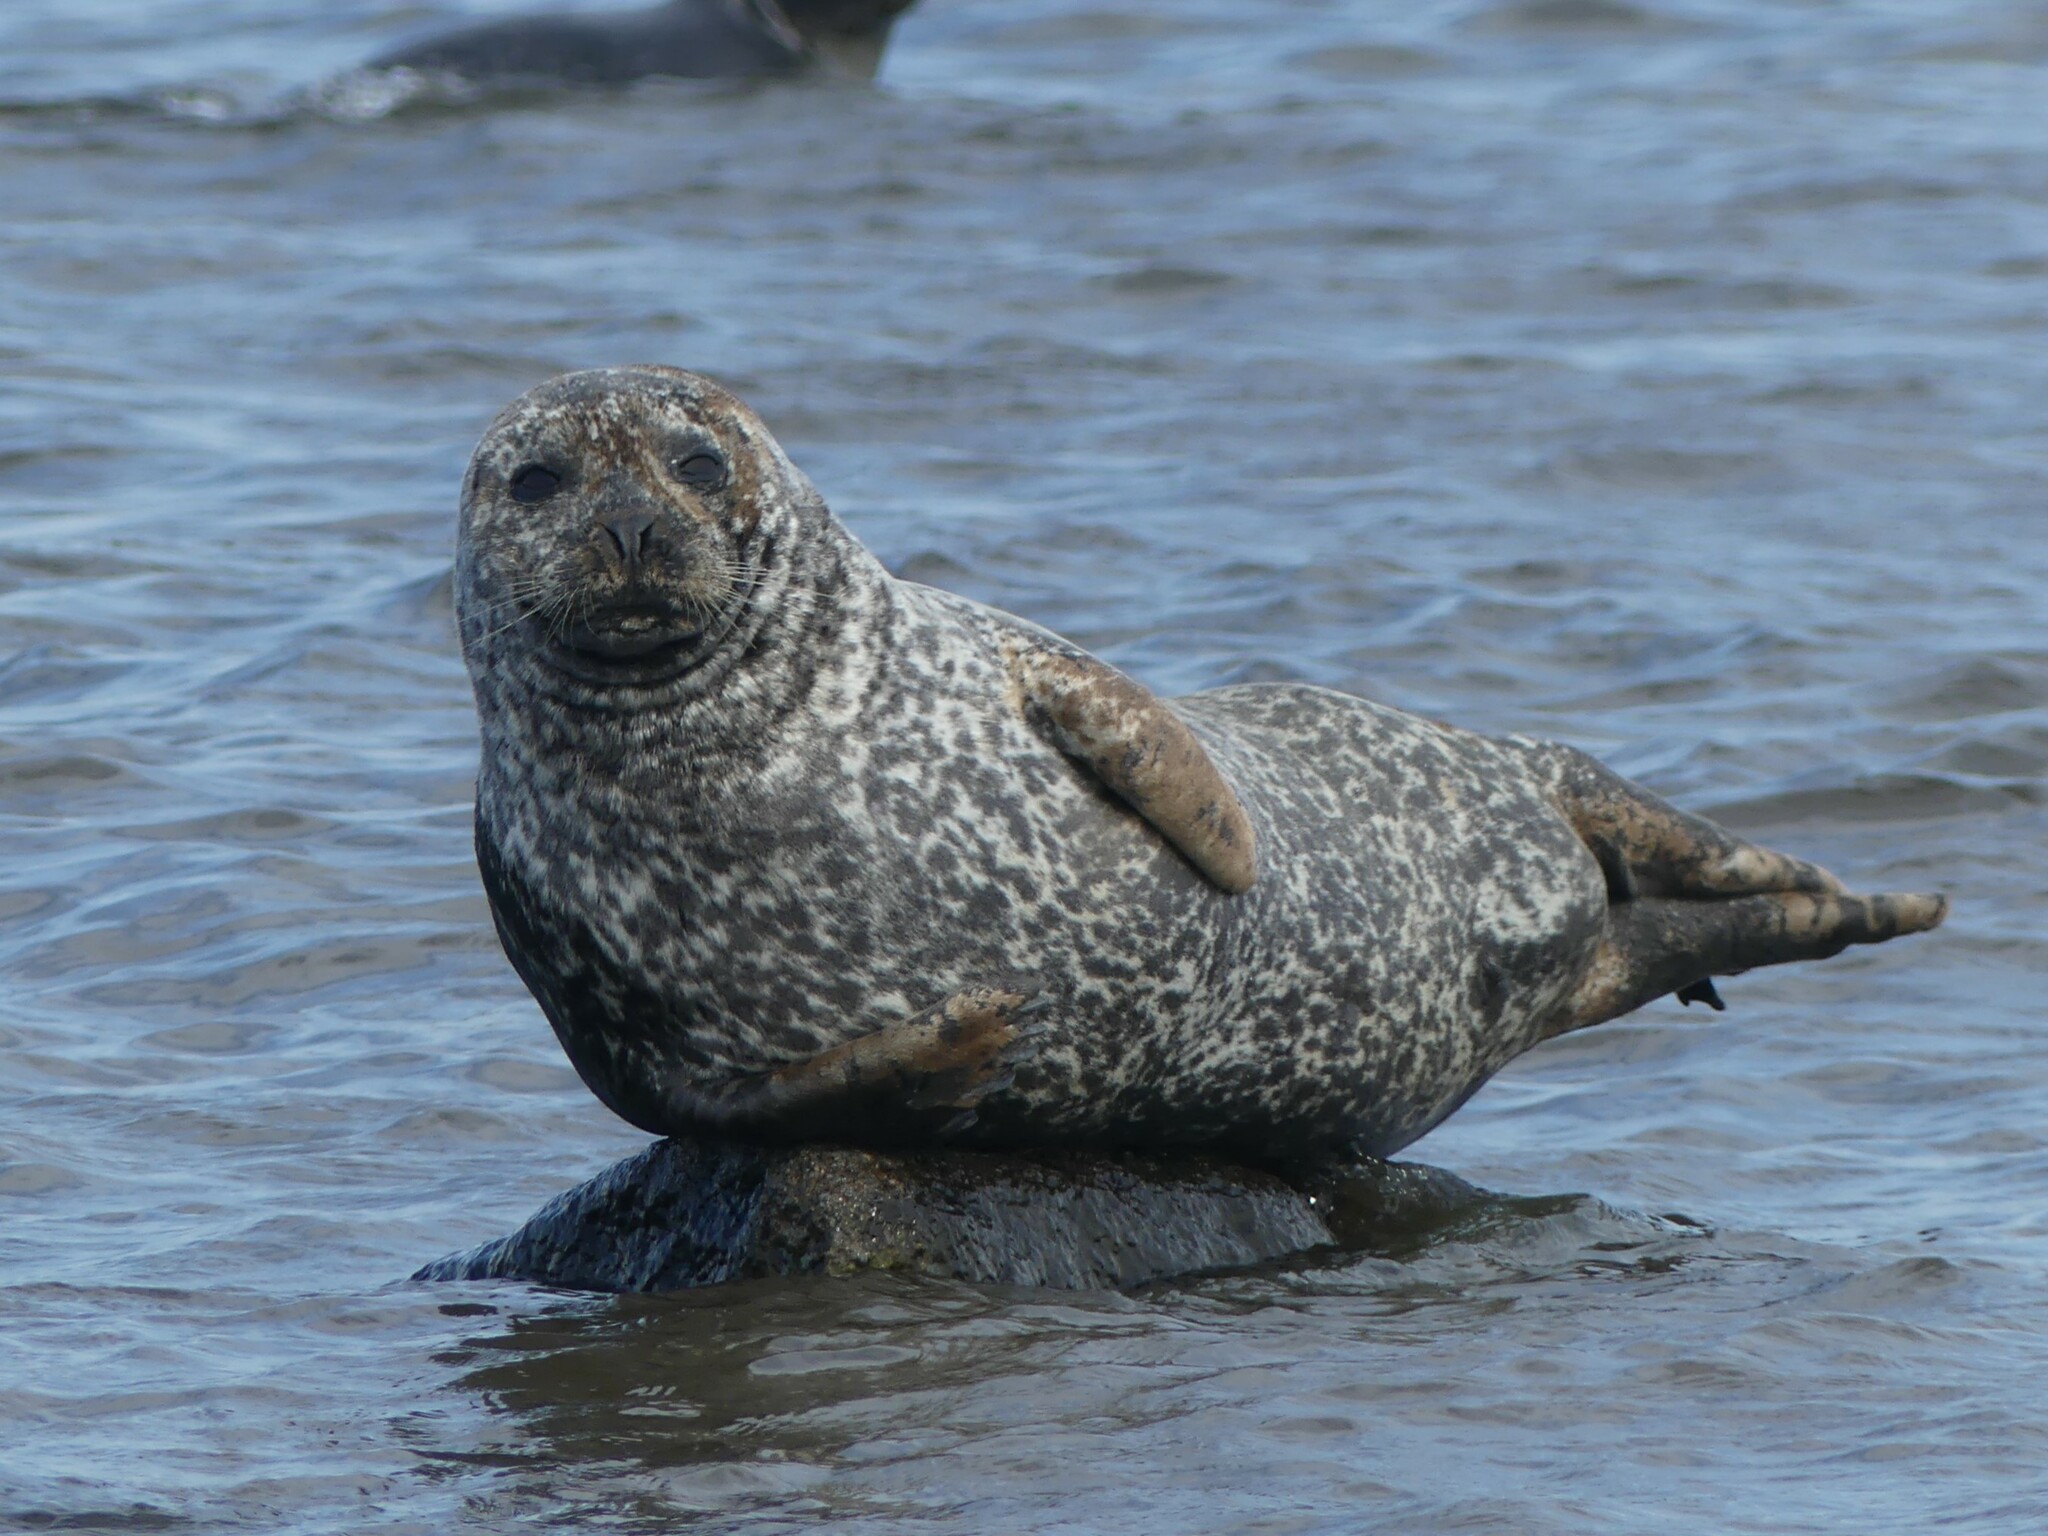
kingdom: Animalia
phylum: Chordata
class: Mammalia
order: Carnivora
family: Phocidae
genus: Phoca
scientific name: Phoca vitulina
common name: Harbor seal
